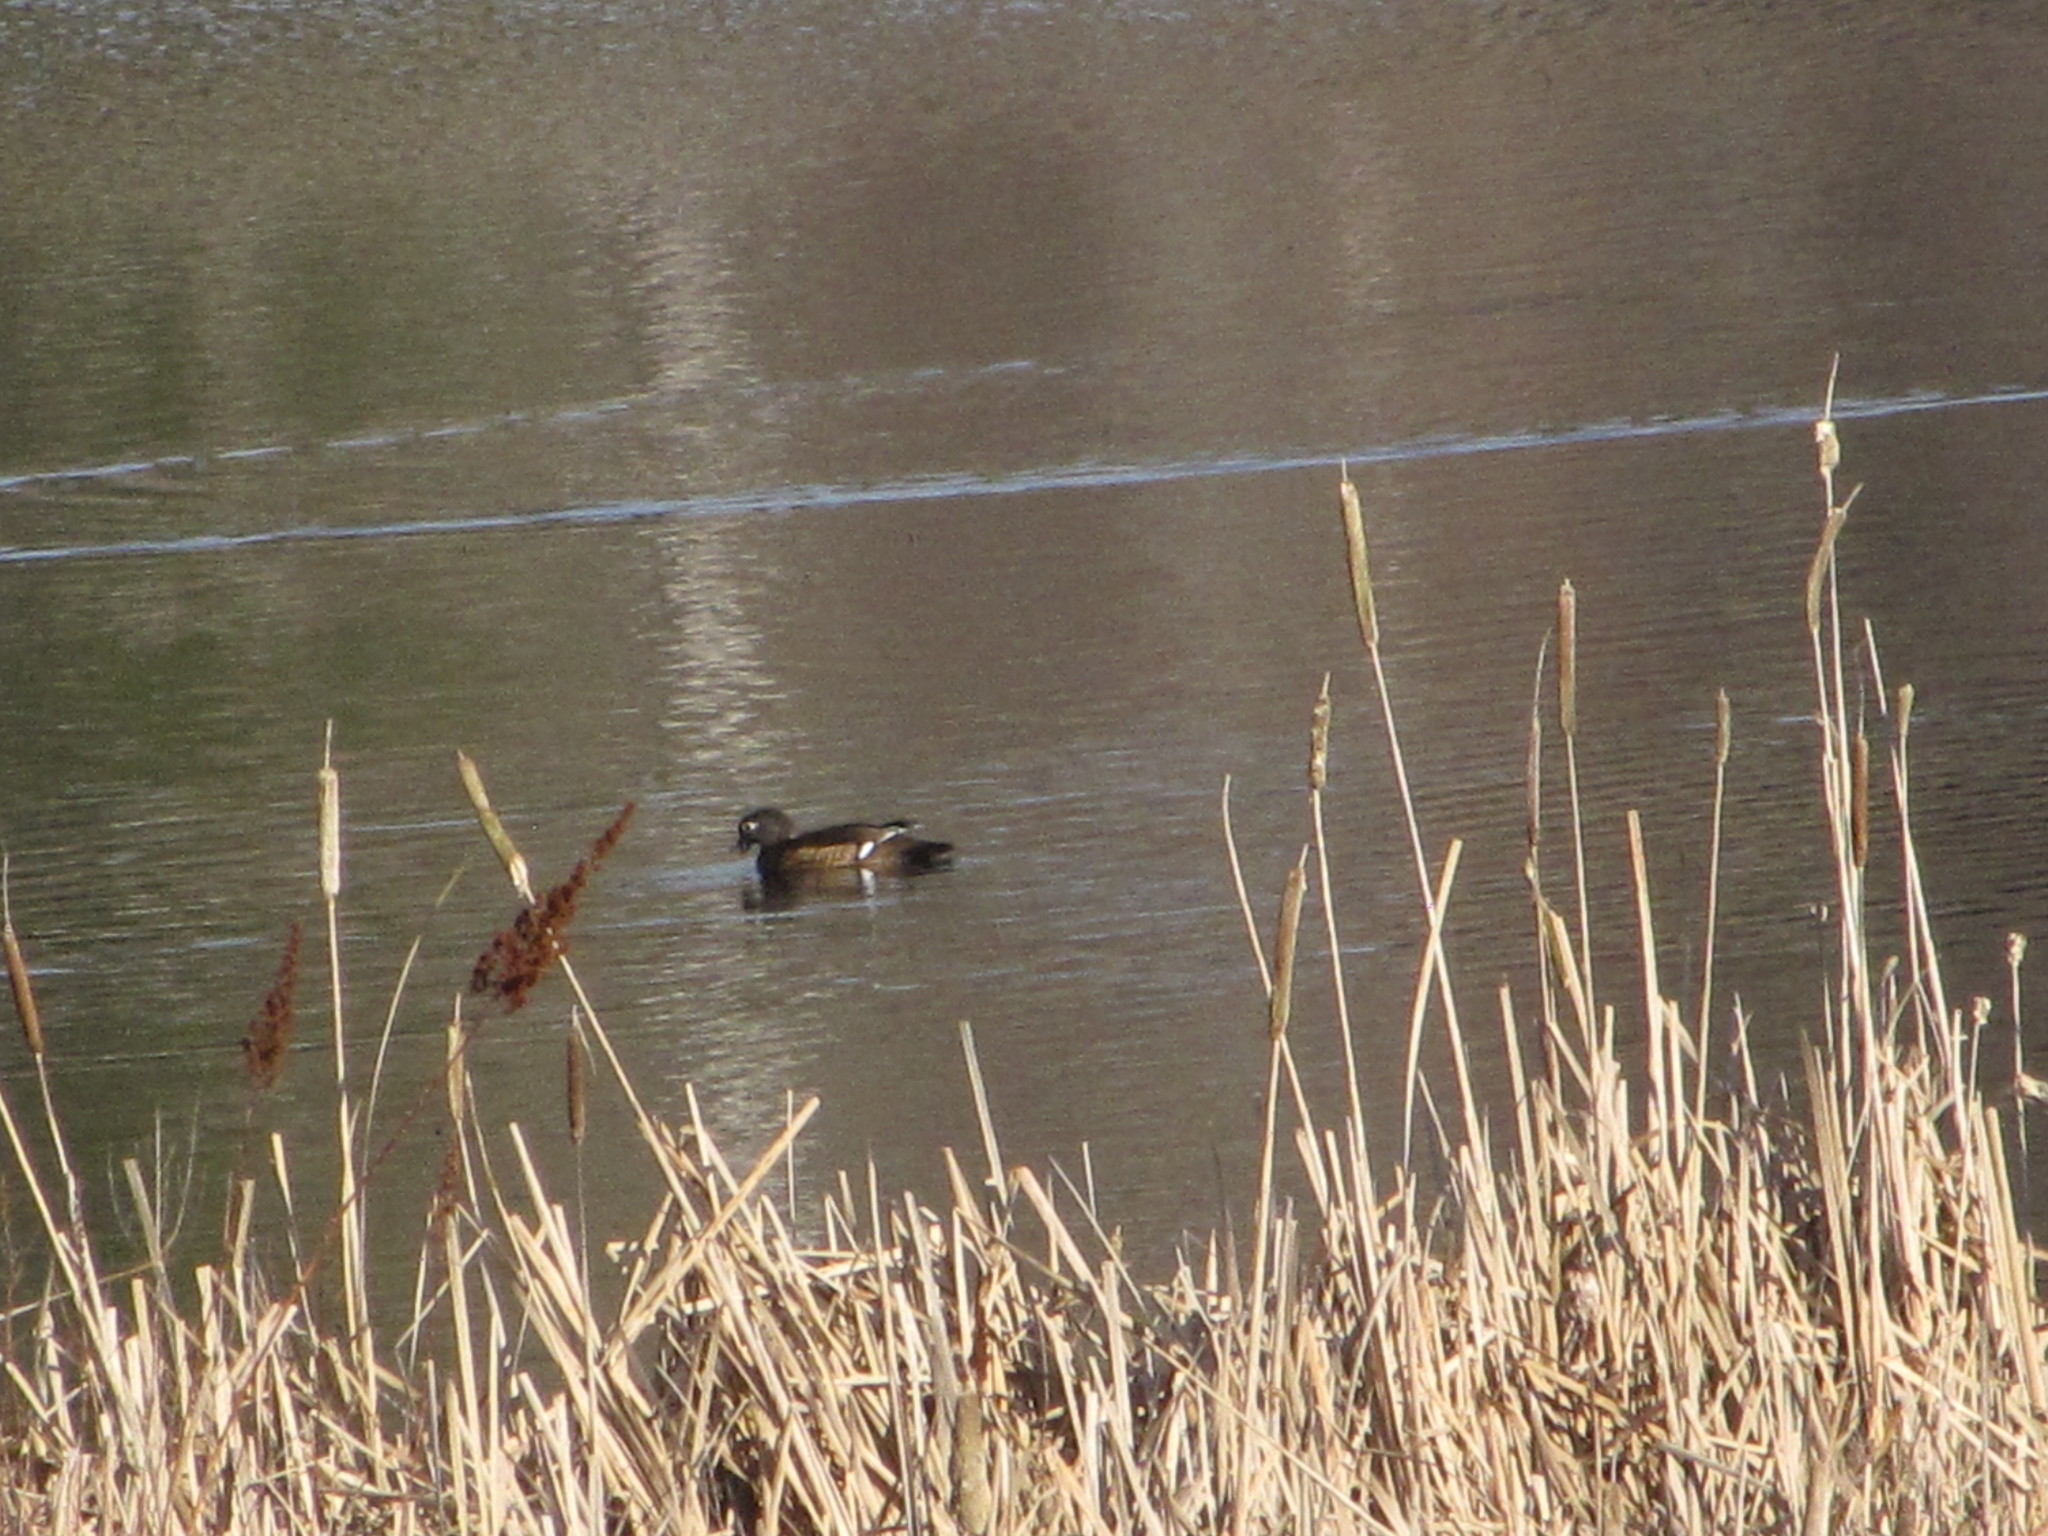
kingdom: Animalia
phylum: Chordata
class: Aves
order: Anseriformes
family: Anatidae
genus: Aix
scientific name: Aix sponsa
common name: Wood duck
